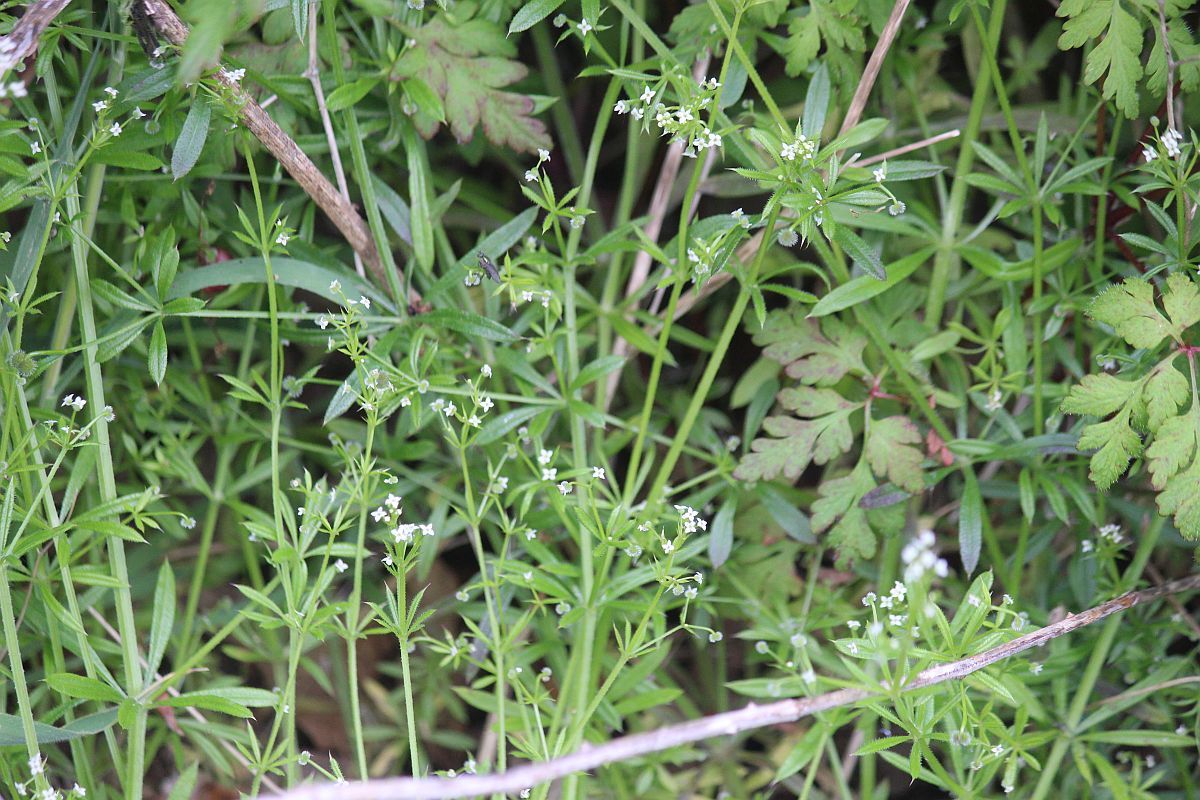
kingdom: Plantae
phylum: Tracheophyta
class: Magnoliopsida
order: Gentianales
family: Rubiaceae
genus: Galium
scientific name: Galium aparine
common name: Cleavers
